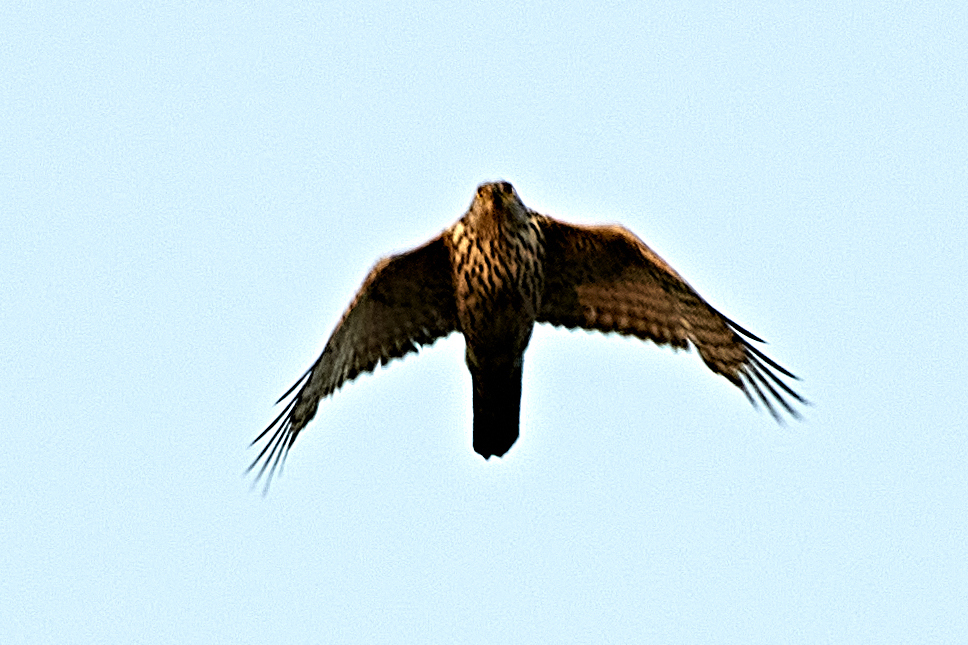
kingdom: Animalia
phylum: Chordata
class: Aves
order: Accipitriformes
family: Accipitridae
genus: Accipiter
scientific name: Accipiter gentilis
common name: Northern goshawk
